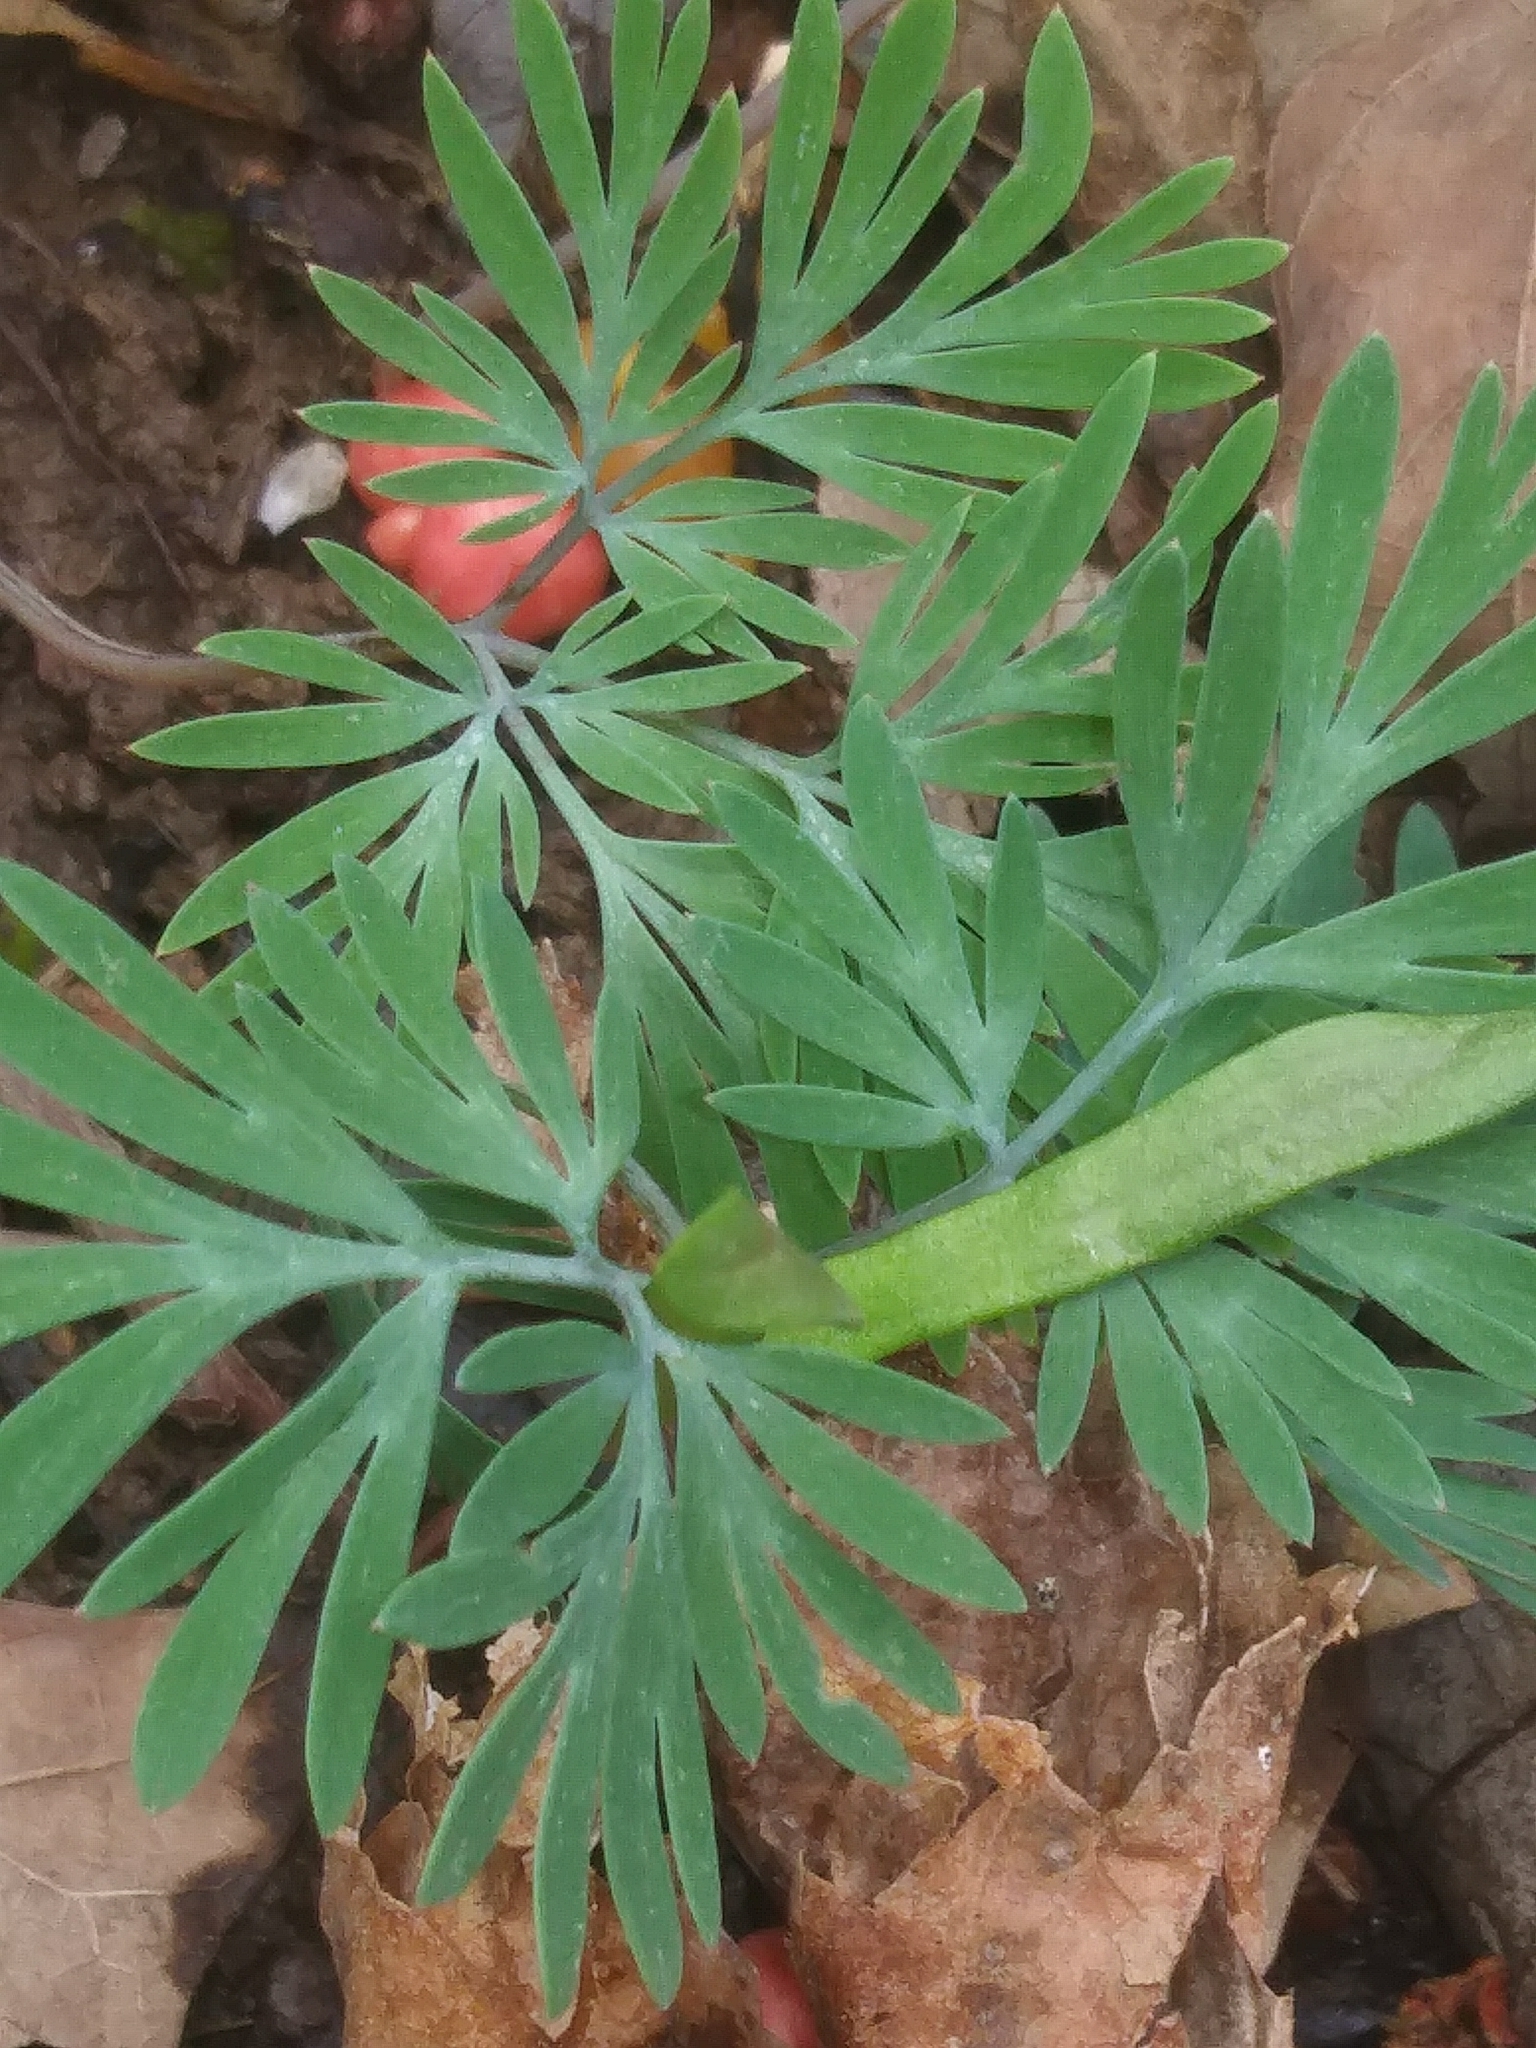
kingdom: Plantae
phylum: Tracheophyta
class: Magnoliopsida
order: Ranunculales
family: Papaveraceae
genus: Dicentra
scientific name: Dicentra cucullaria
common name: Dutchman's breeches
